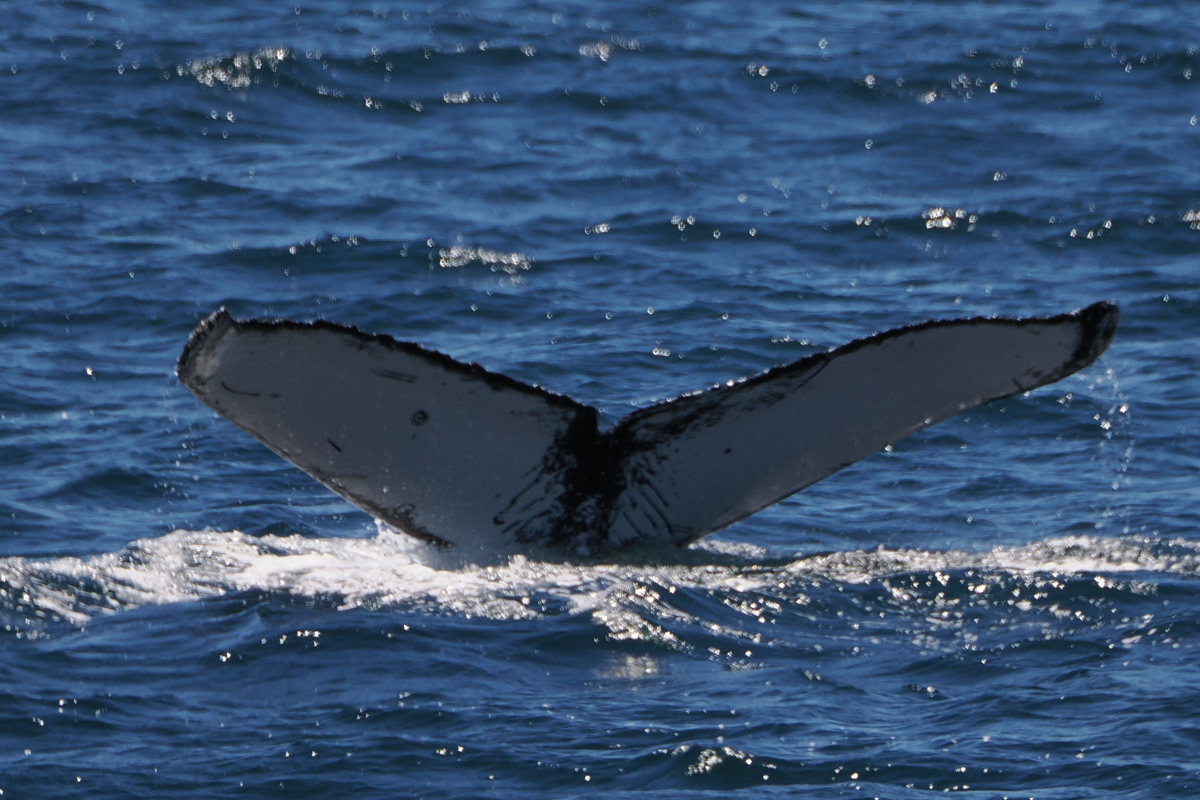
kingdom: Animalia
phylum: Chordata
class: Mammalia
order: Cetacea
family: Balaenopteridae
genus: Megaptera
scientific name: Megaptera novaeangliae
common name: Humpback whale
